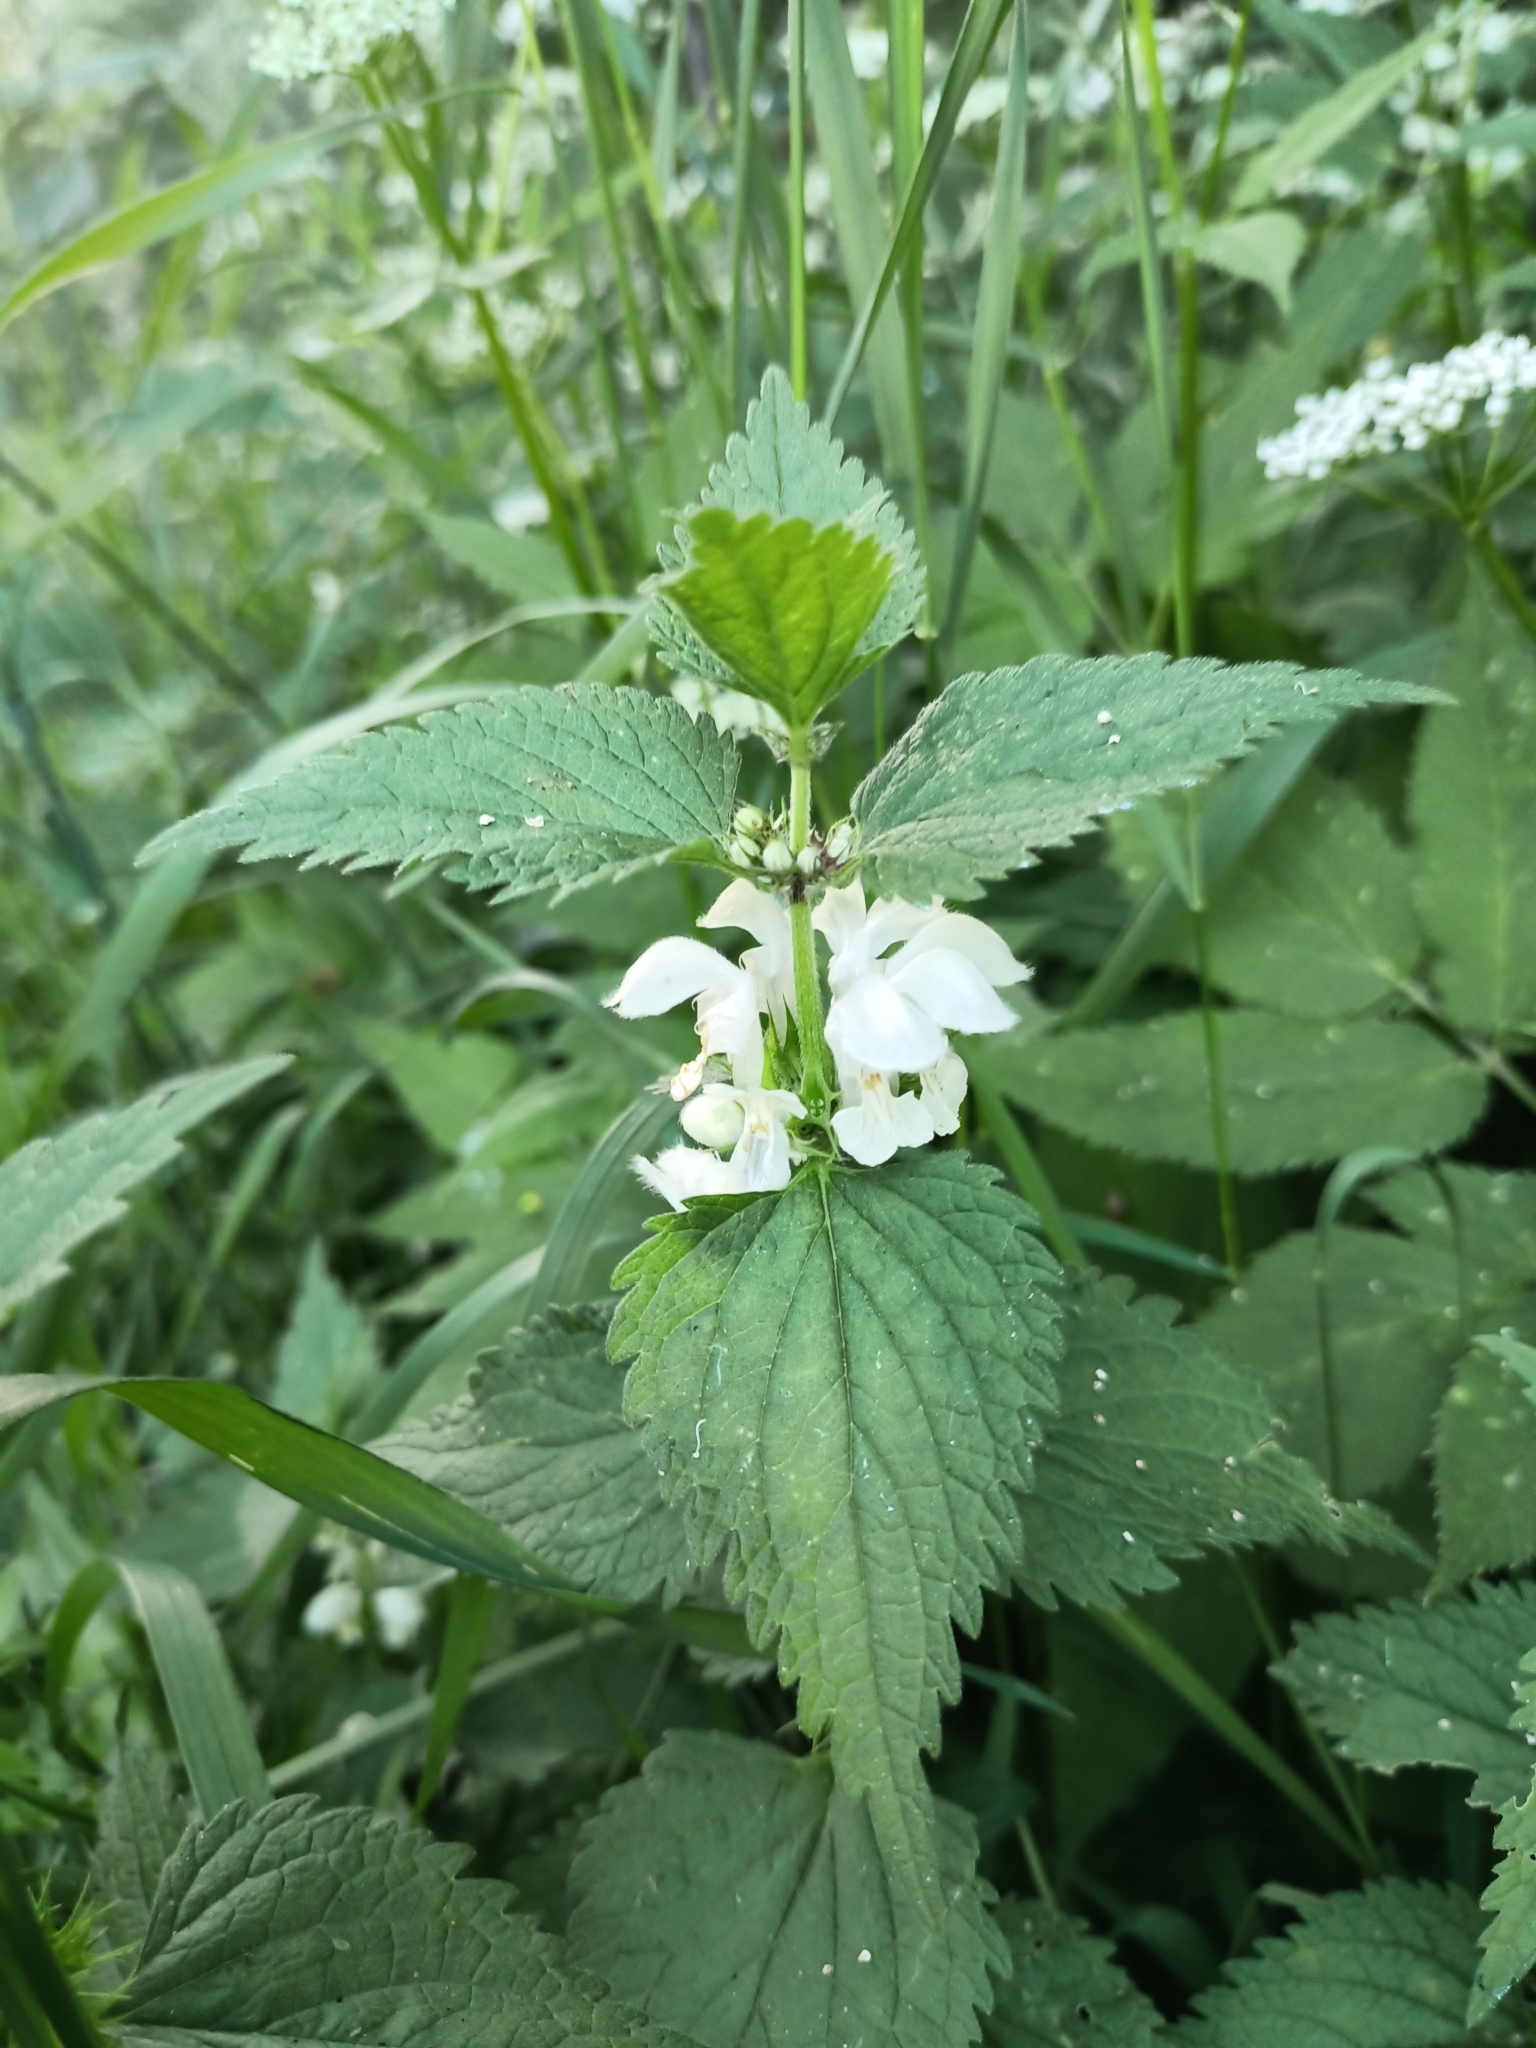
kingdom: Plantae
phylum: Tracheophyta
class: Magnoliopsida
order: Lamiales
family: Lamiaceae
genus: Lamium
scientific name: Lamium album
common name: White dead-nettle
